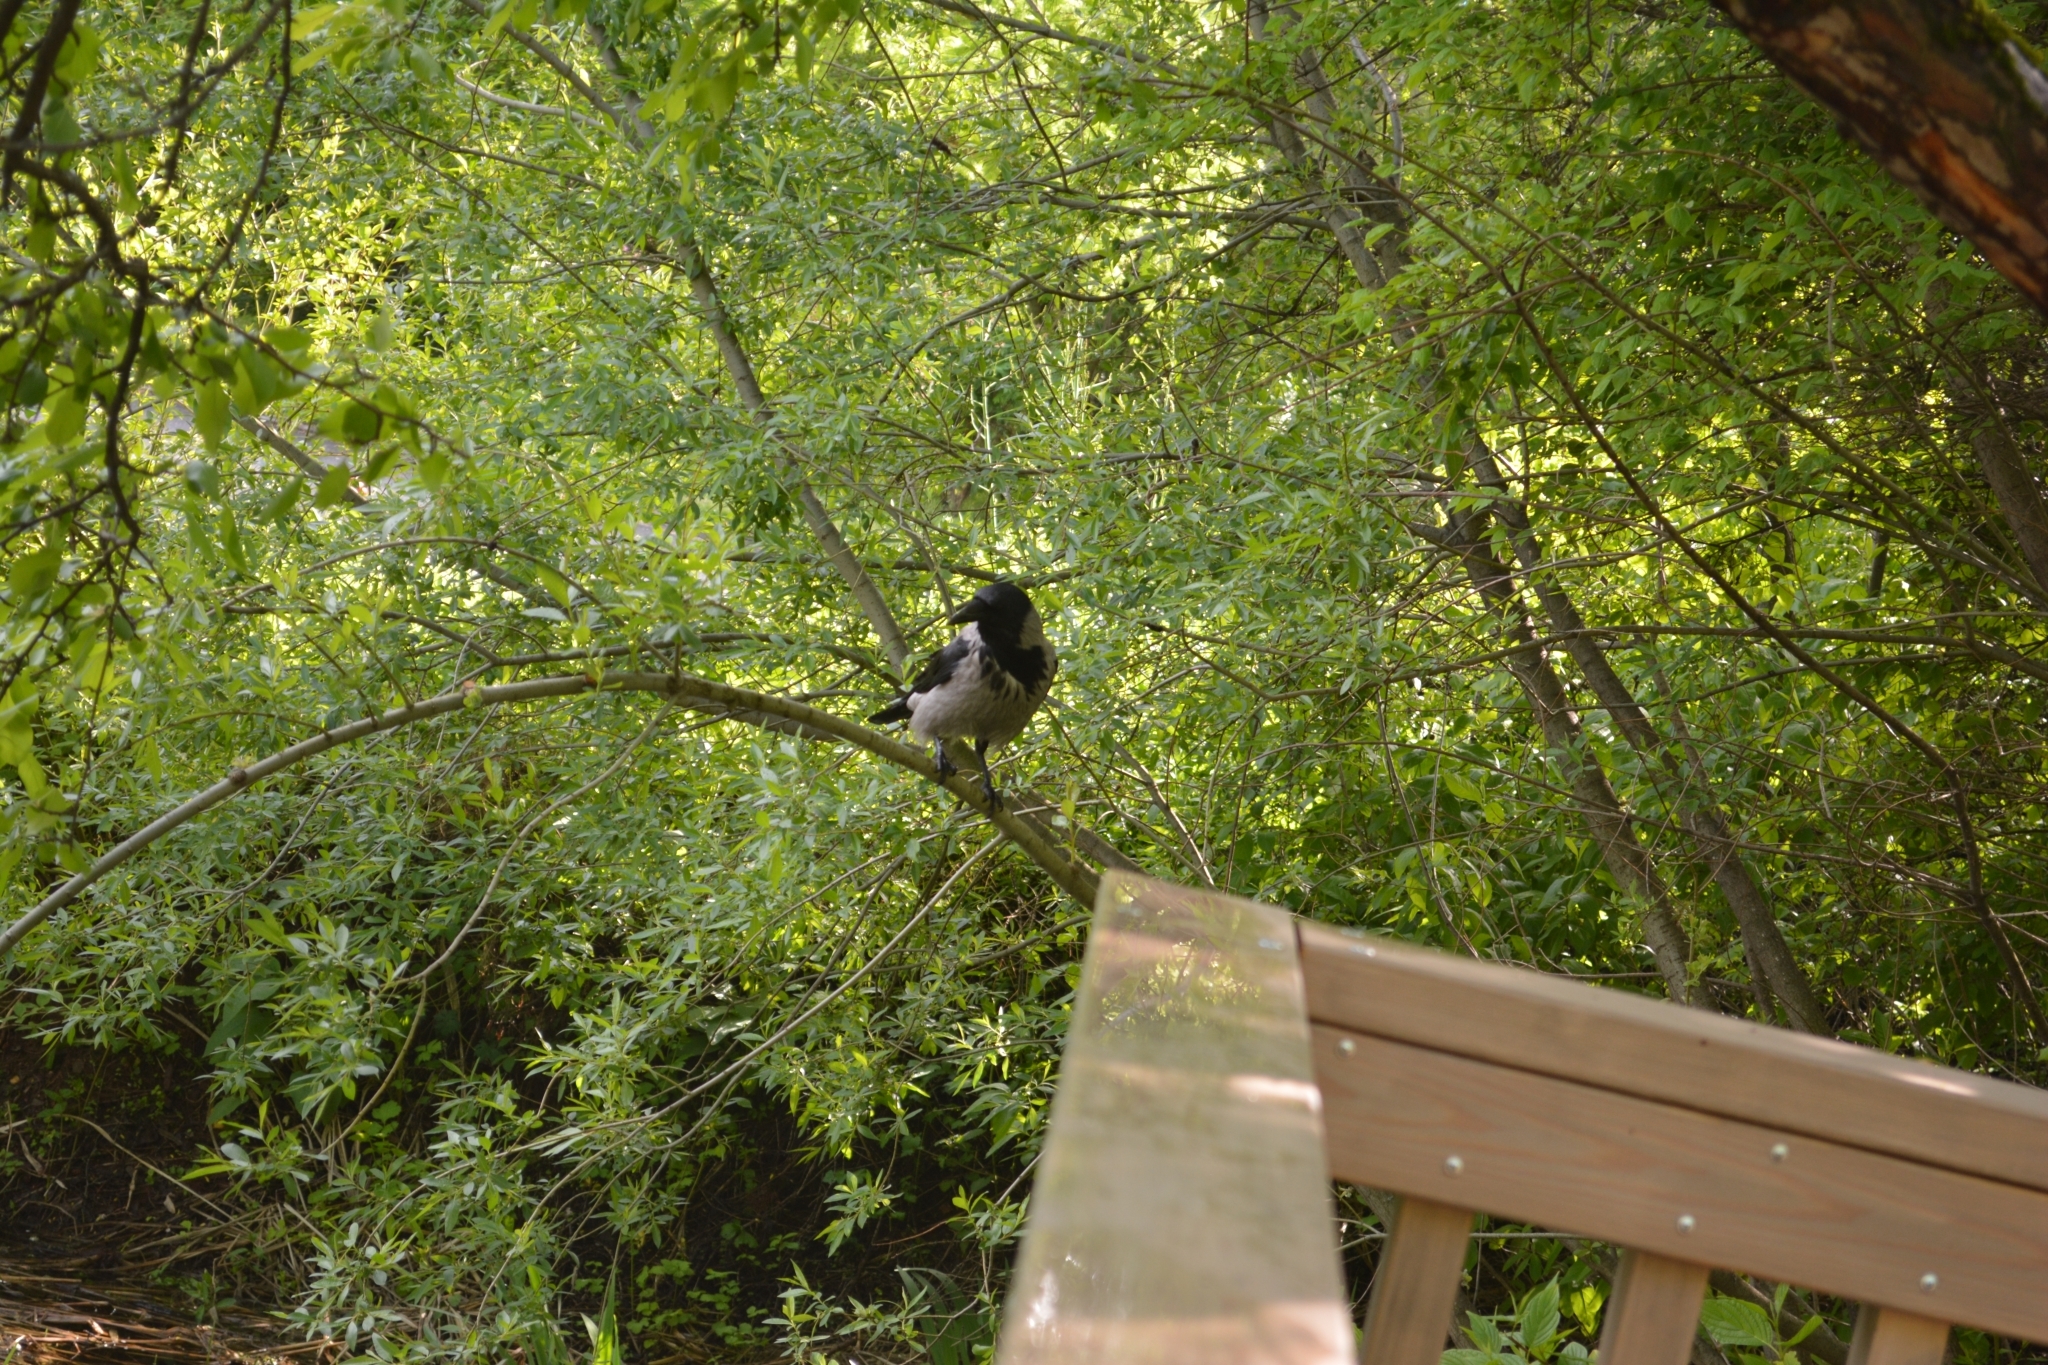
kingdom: Animalia
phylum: Chordata
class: Aves
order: Passeriformes
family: Corvidae
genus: Corvus
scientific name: Corvus cornix
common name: Hooded crow
